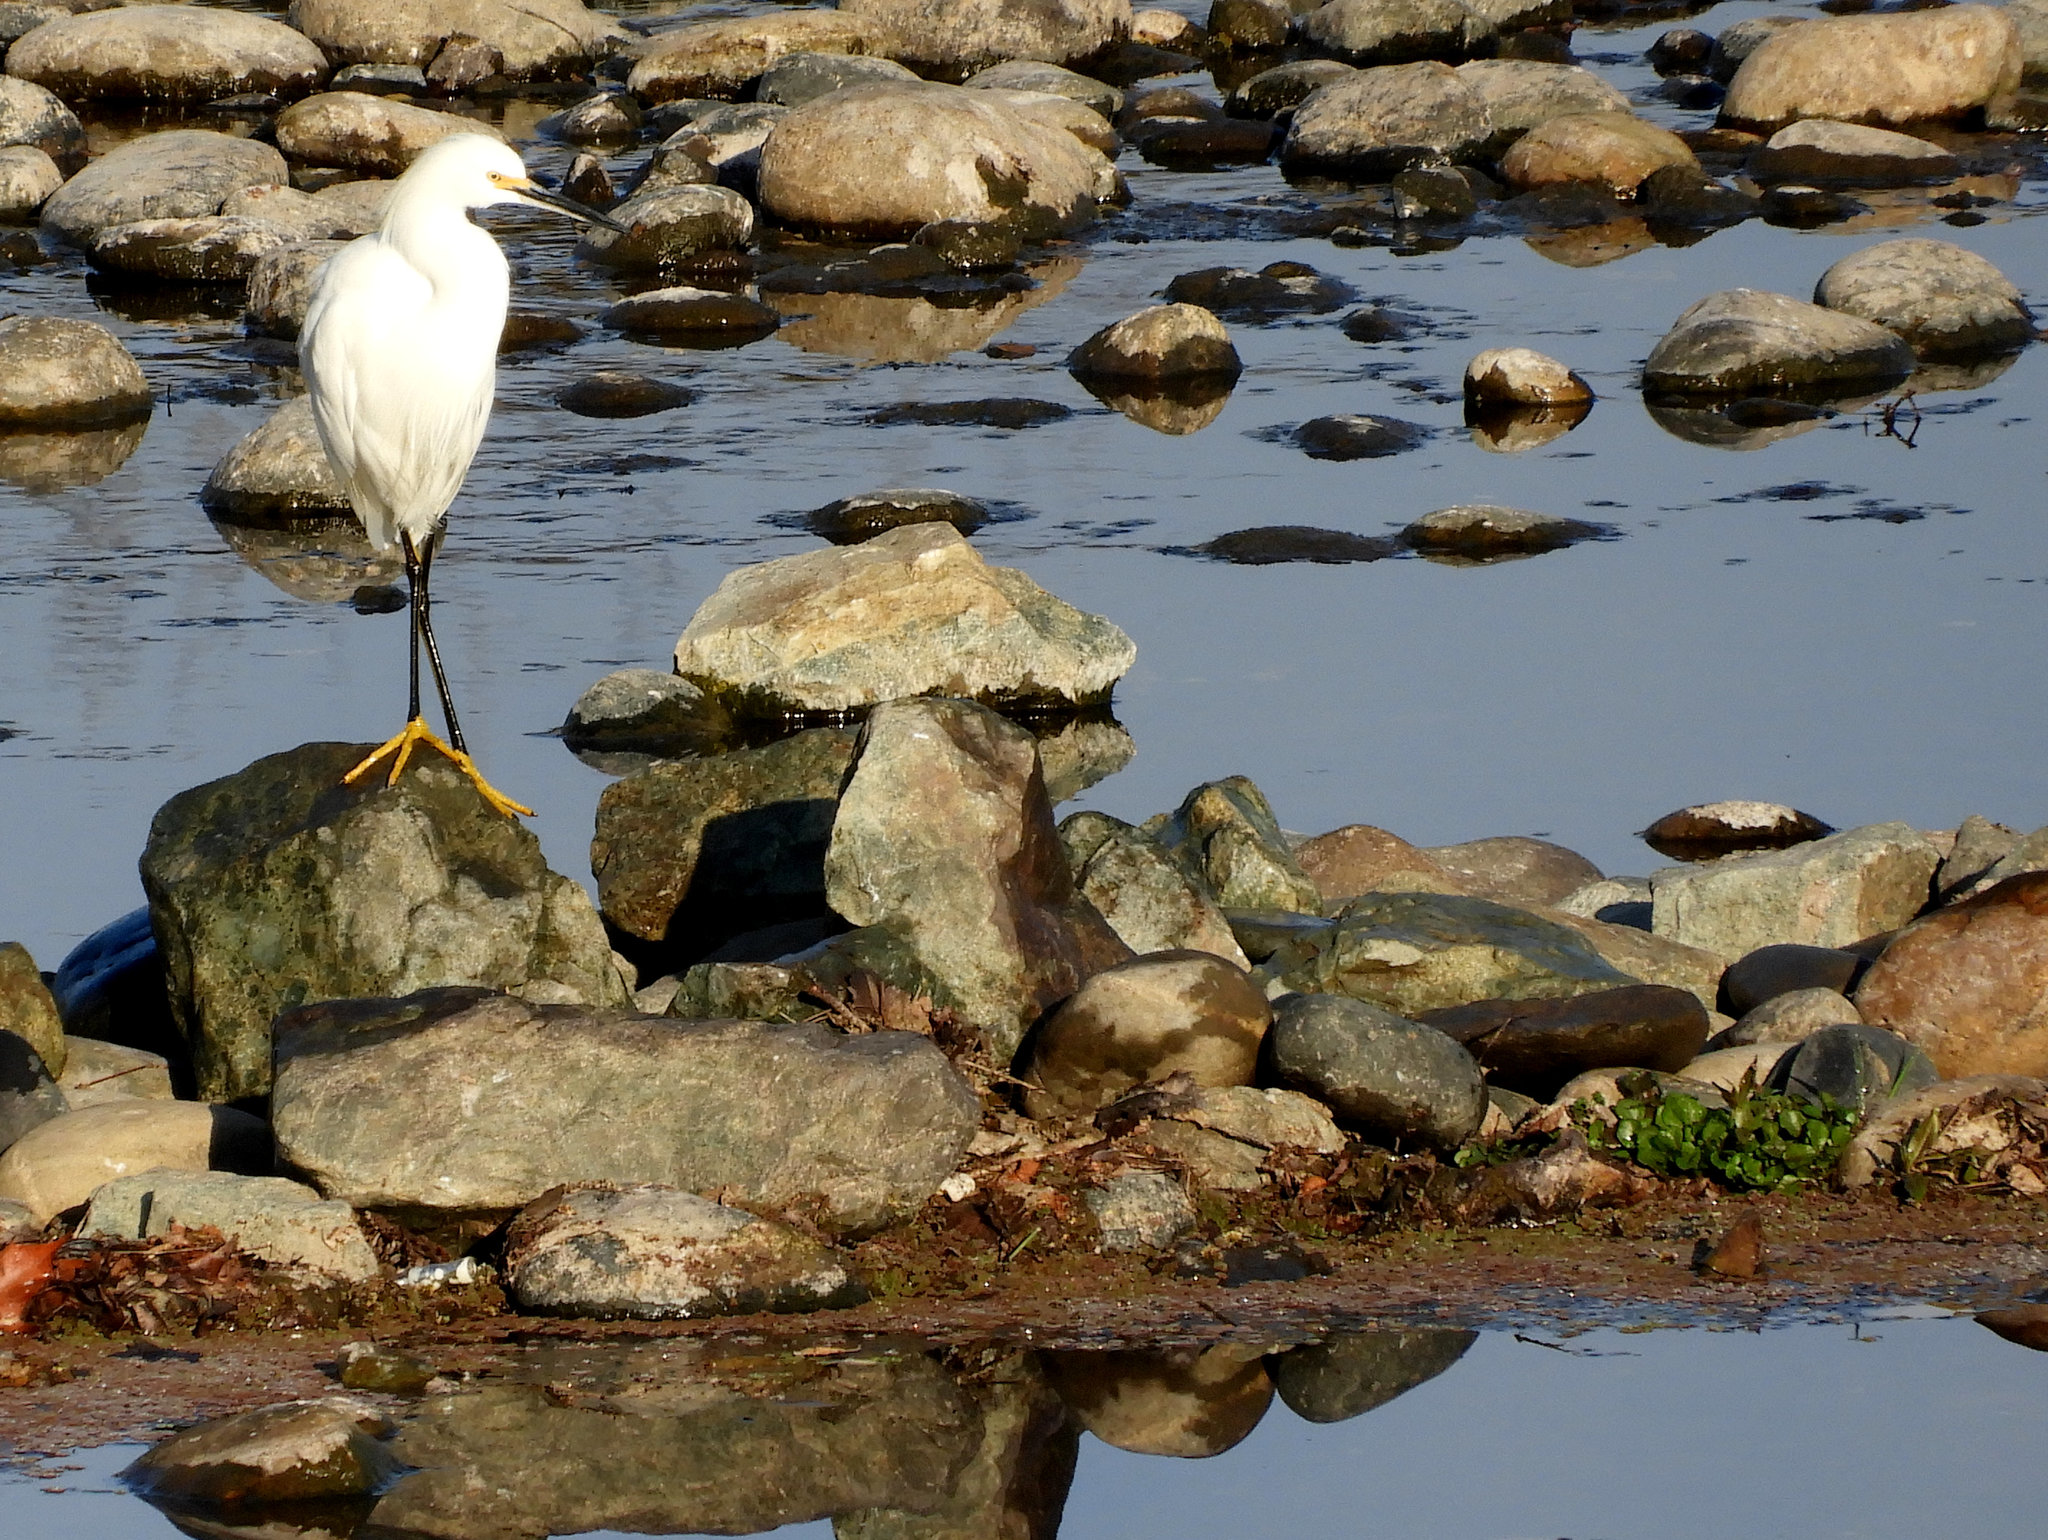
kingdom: Animalia
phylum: Chordata
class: Aves
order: Pelecaniformes
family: Ardeidae
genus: Egretta
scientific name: Egretta thula
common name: Snowy egret
